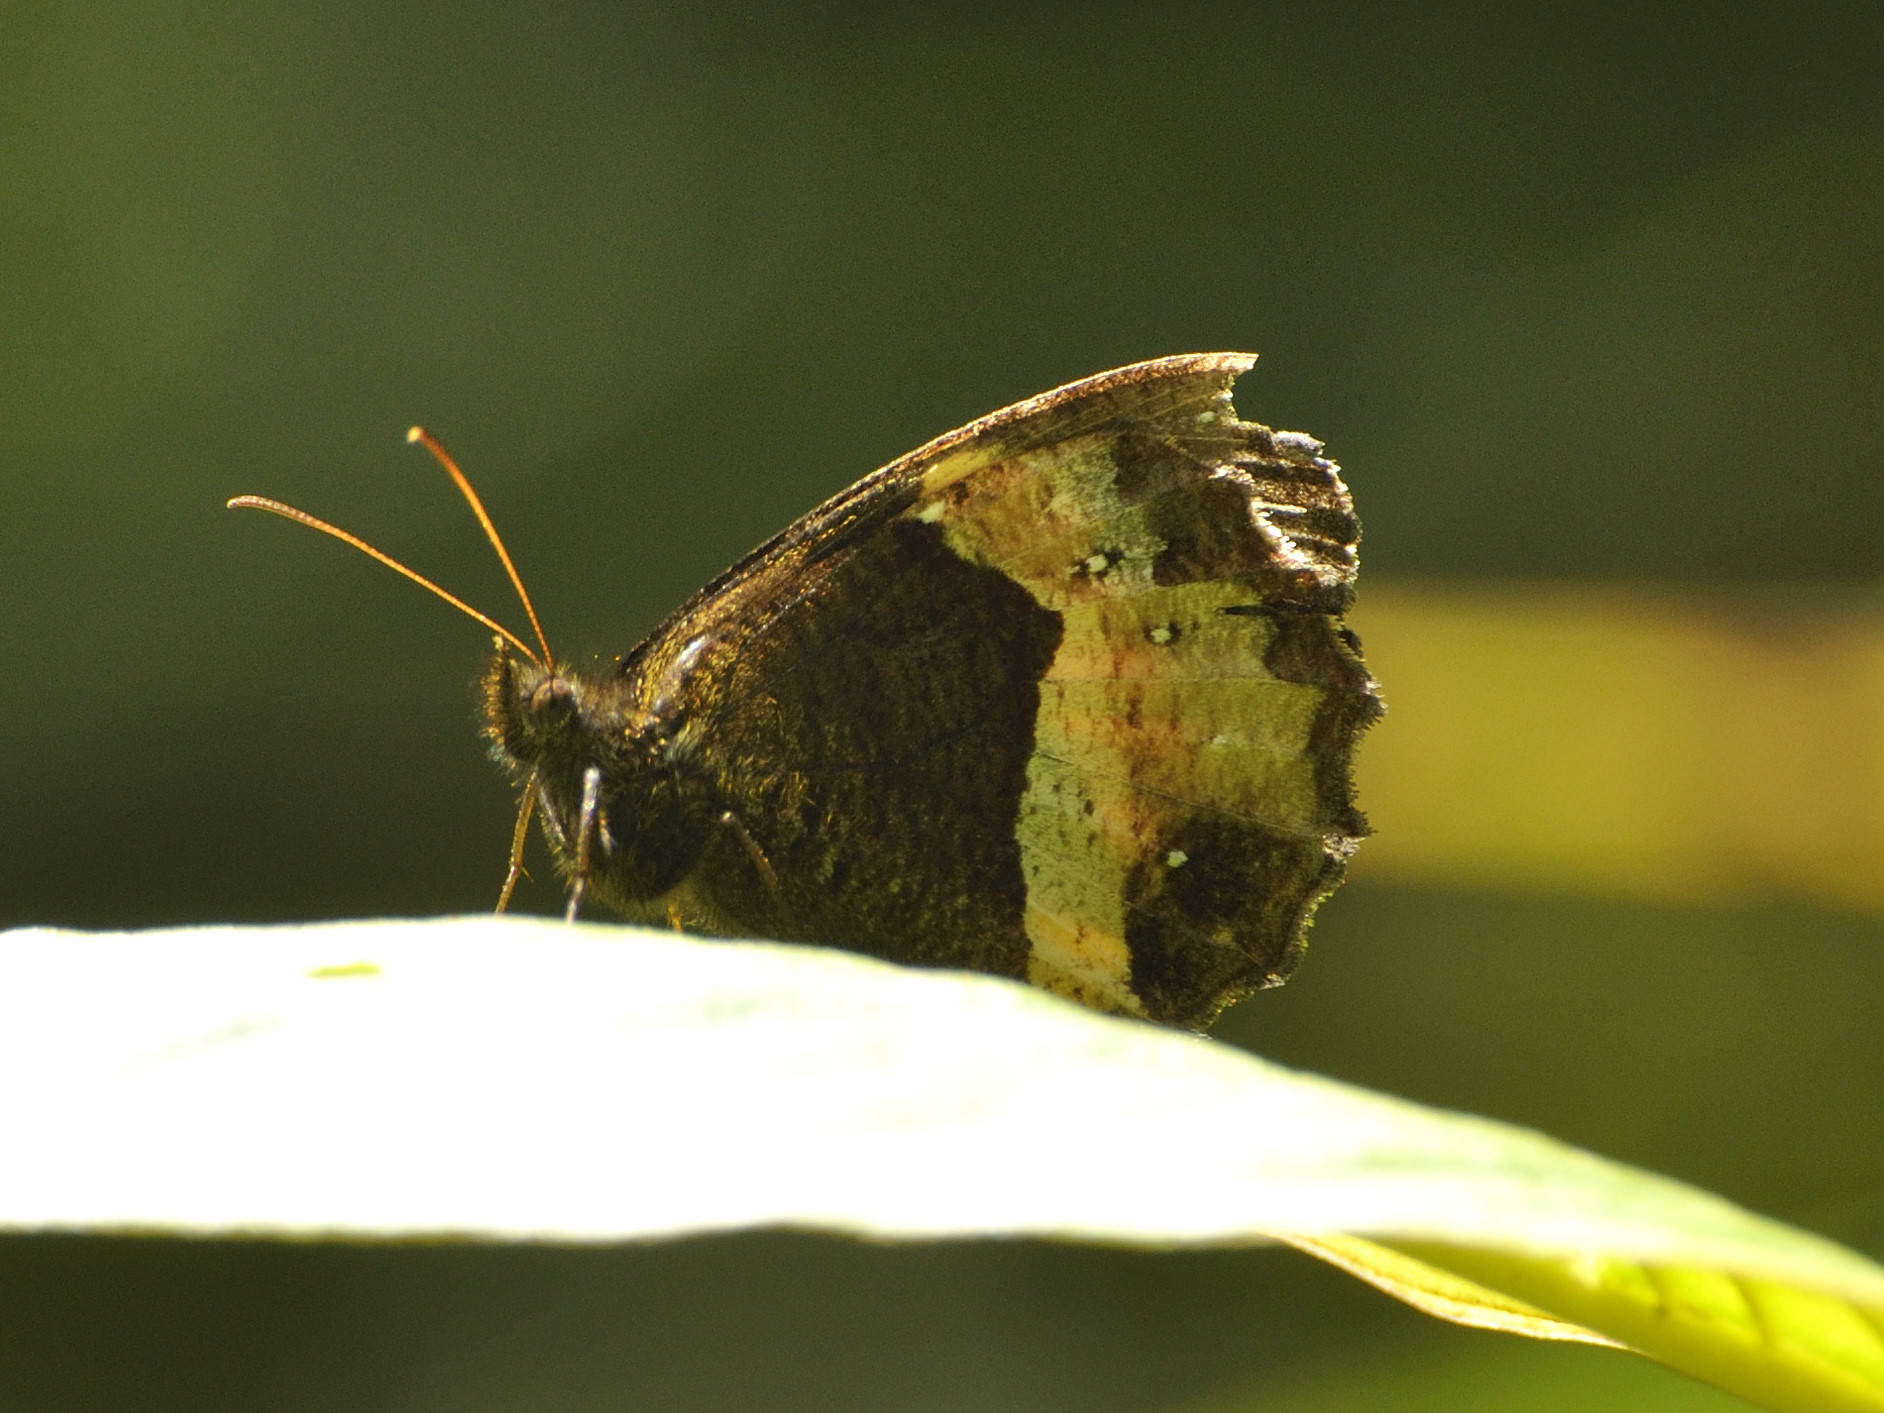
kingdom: Animalia
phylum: Arthropoda
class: Insecta
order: Lepidoptera
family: Nymphalidae
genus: Pedaliodes
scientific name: Pedaliodes pelinna
